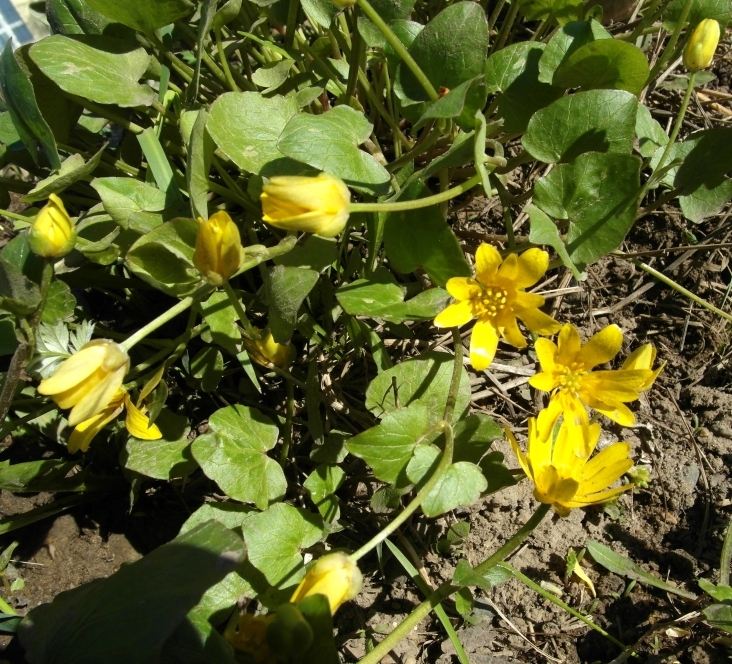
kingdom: Plantae
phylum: Tracheophyta
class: Magnoliopsida
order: Ranunculales
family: Ranunculaceae
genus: Ficaria
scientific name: Ficaria verna
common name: Lesser celandine
